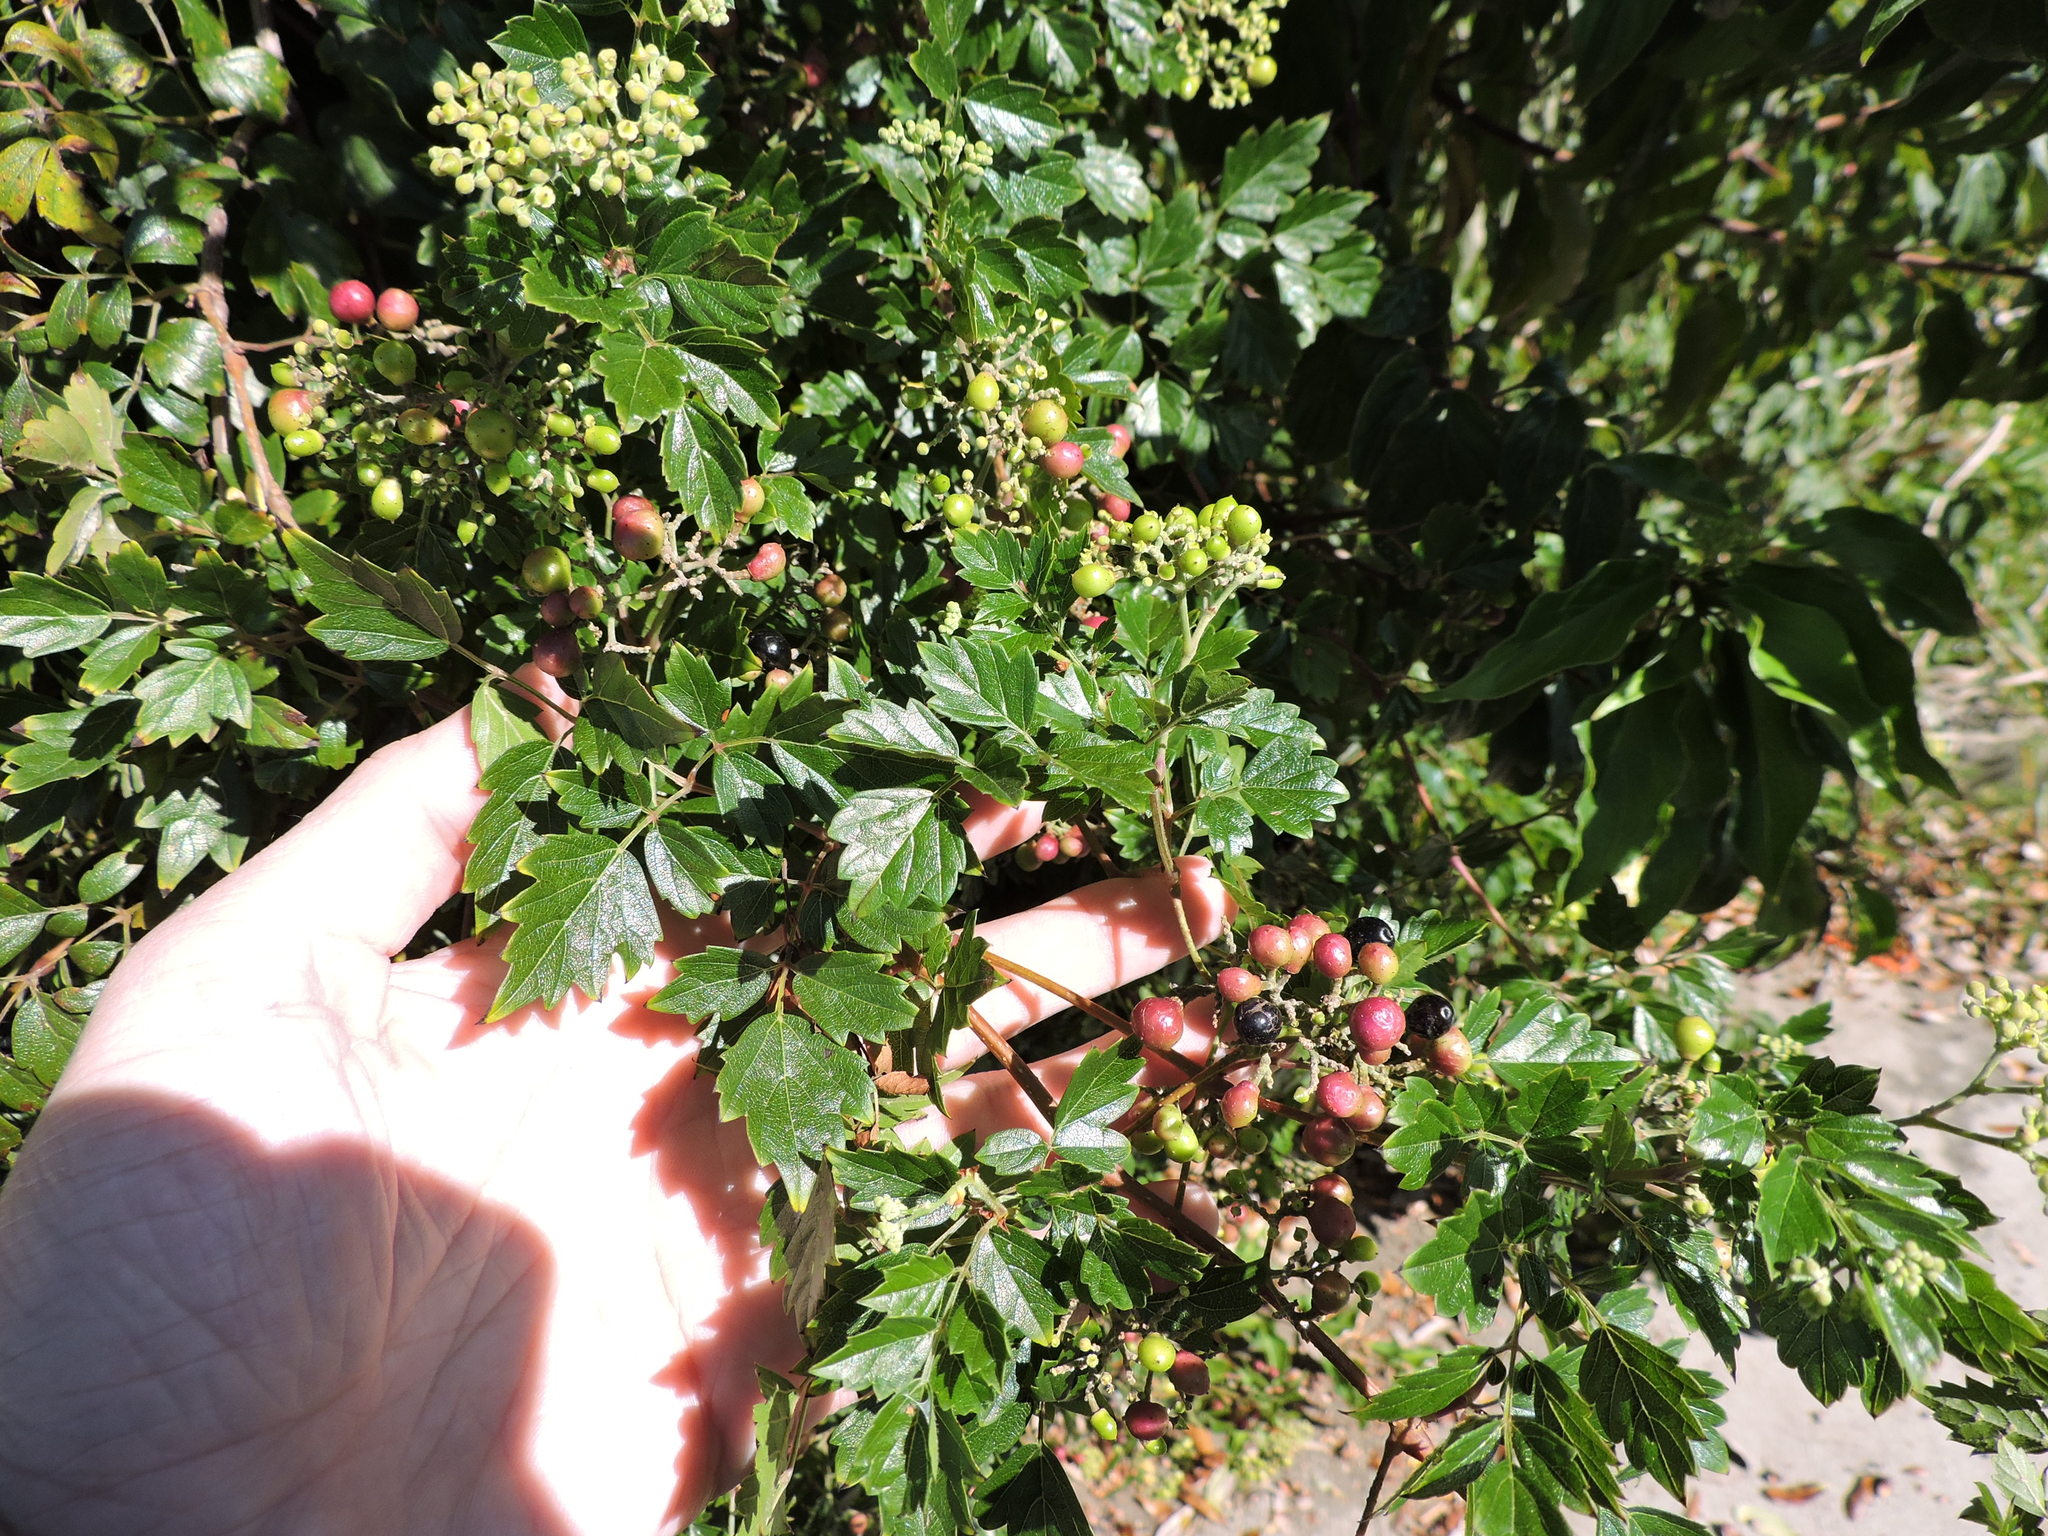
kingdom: Plantae
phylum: Tracheophyta
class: Magnoliopsida
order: Vitales
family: Vitaceae
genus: Nekemias
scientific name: Nekemias arborea
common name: Peppervine
